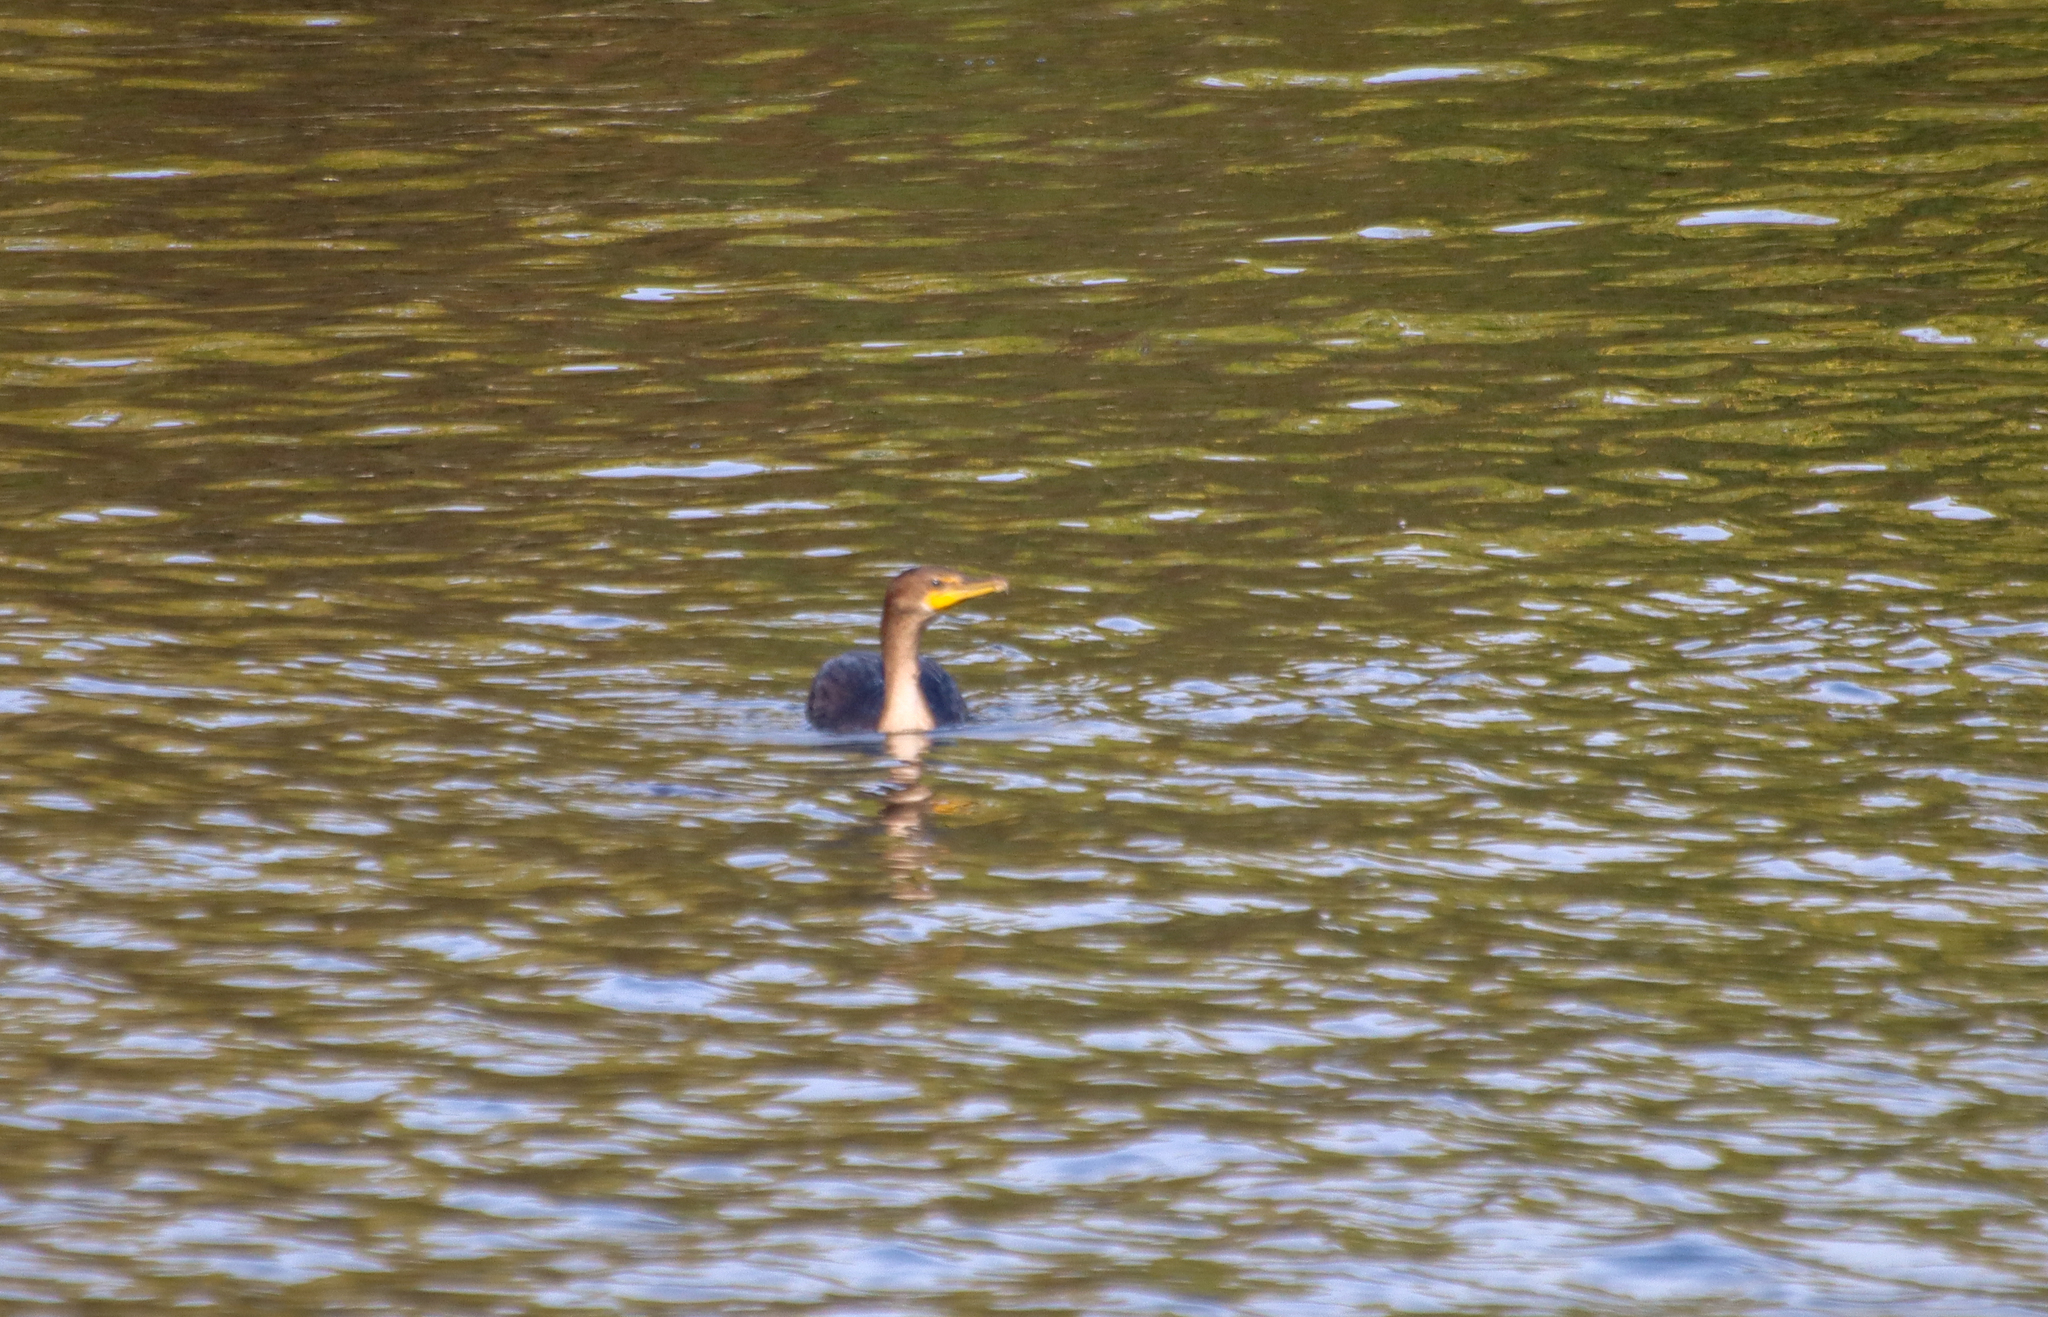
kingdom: Animalia
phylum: Chordata
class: Aves
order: Suliformes
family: Phalacrocoracidae
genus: Phalacrocorax
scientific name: Phalacrocorax auritus
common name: Double-crested cormorant
